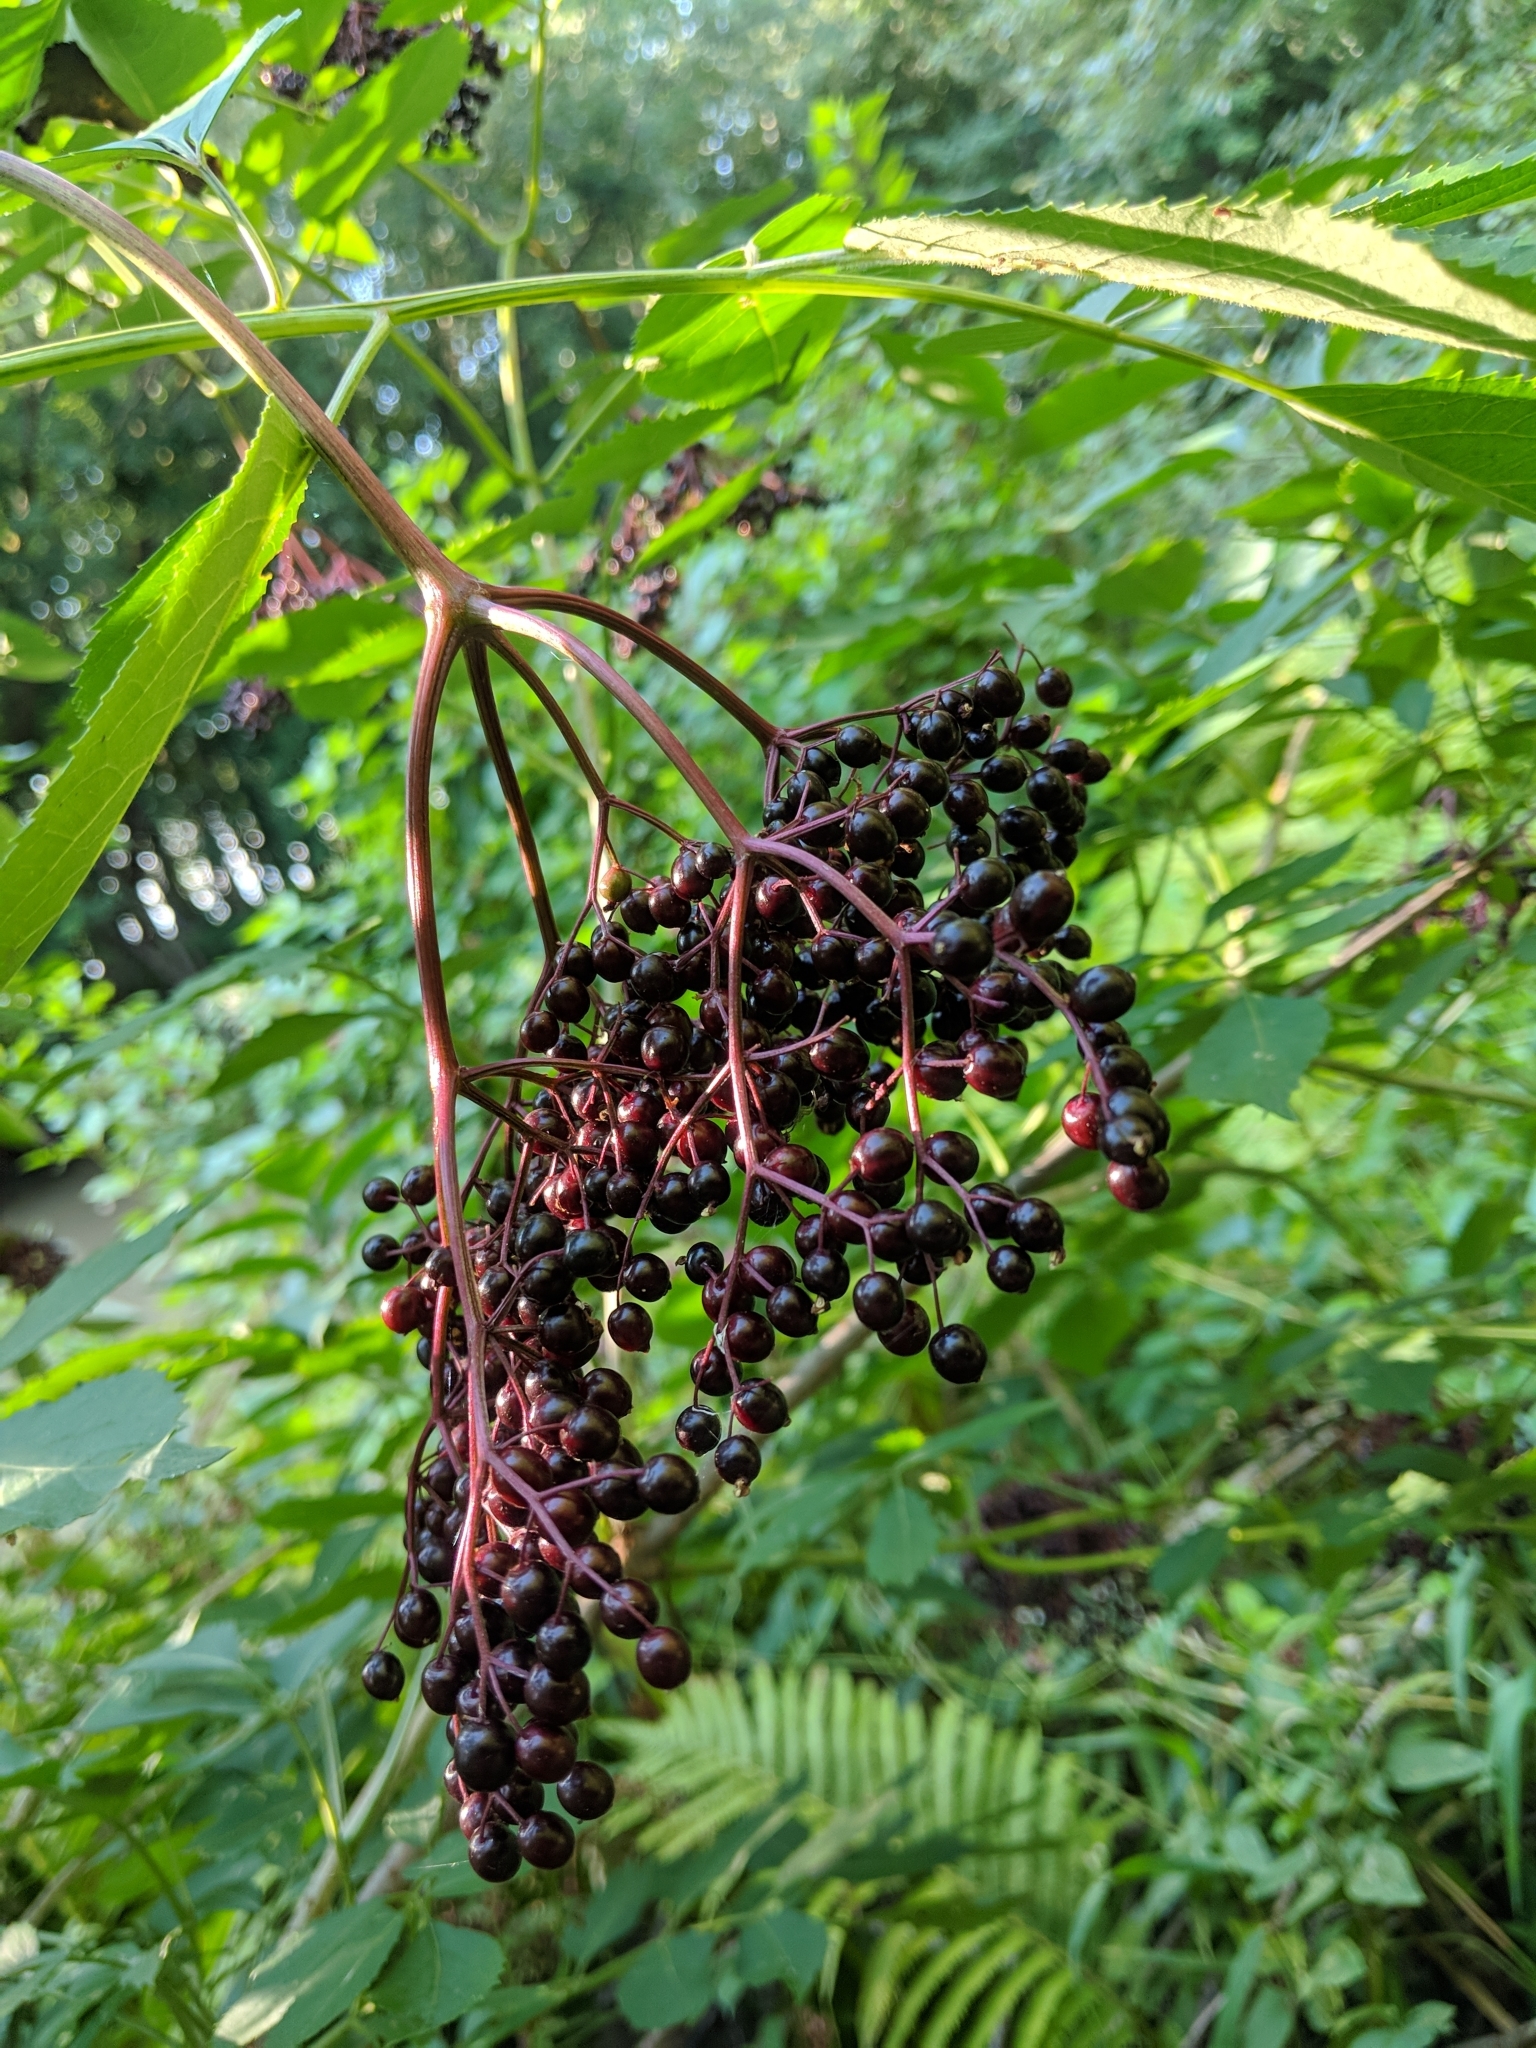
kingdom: Plantae
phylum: Tracheophyta
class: Magnoliopsida
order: Dipsacales
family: Viburnaceae
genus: Sambucus
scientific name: Sambucus canadensis
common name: American elder
